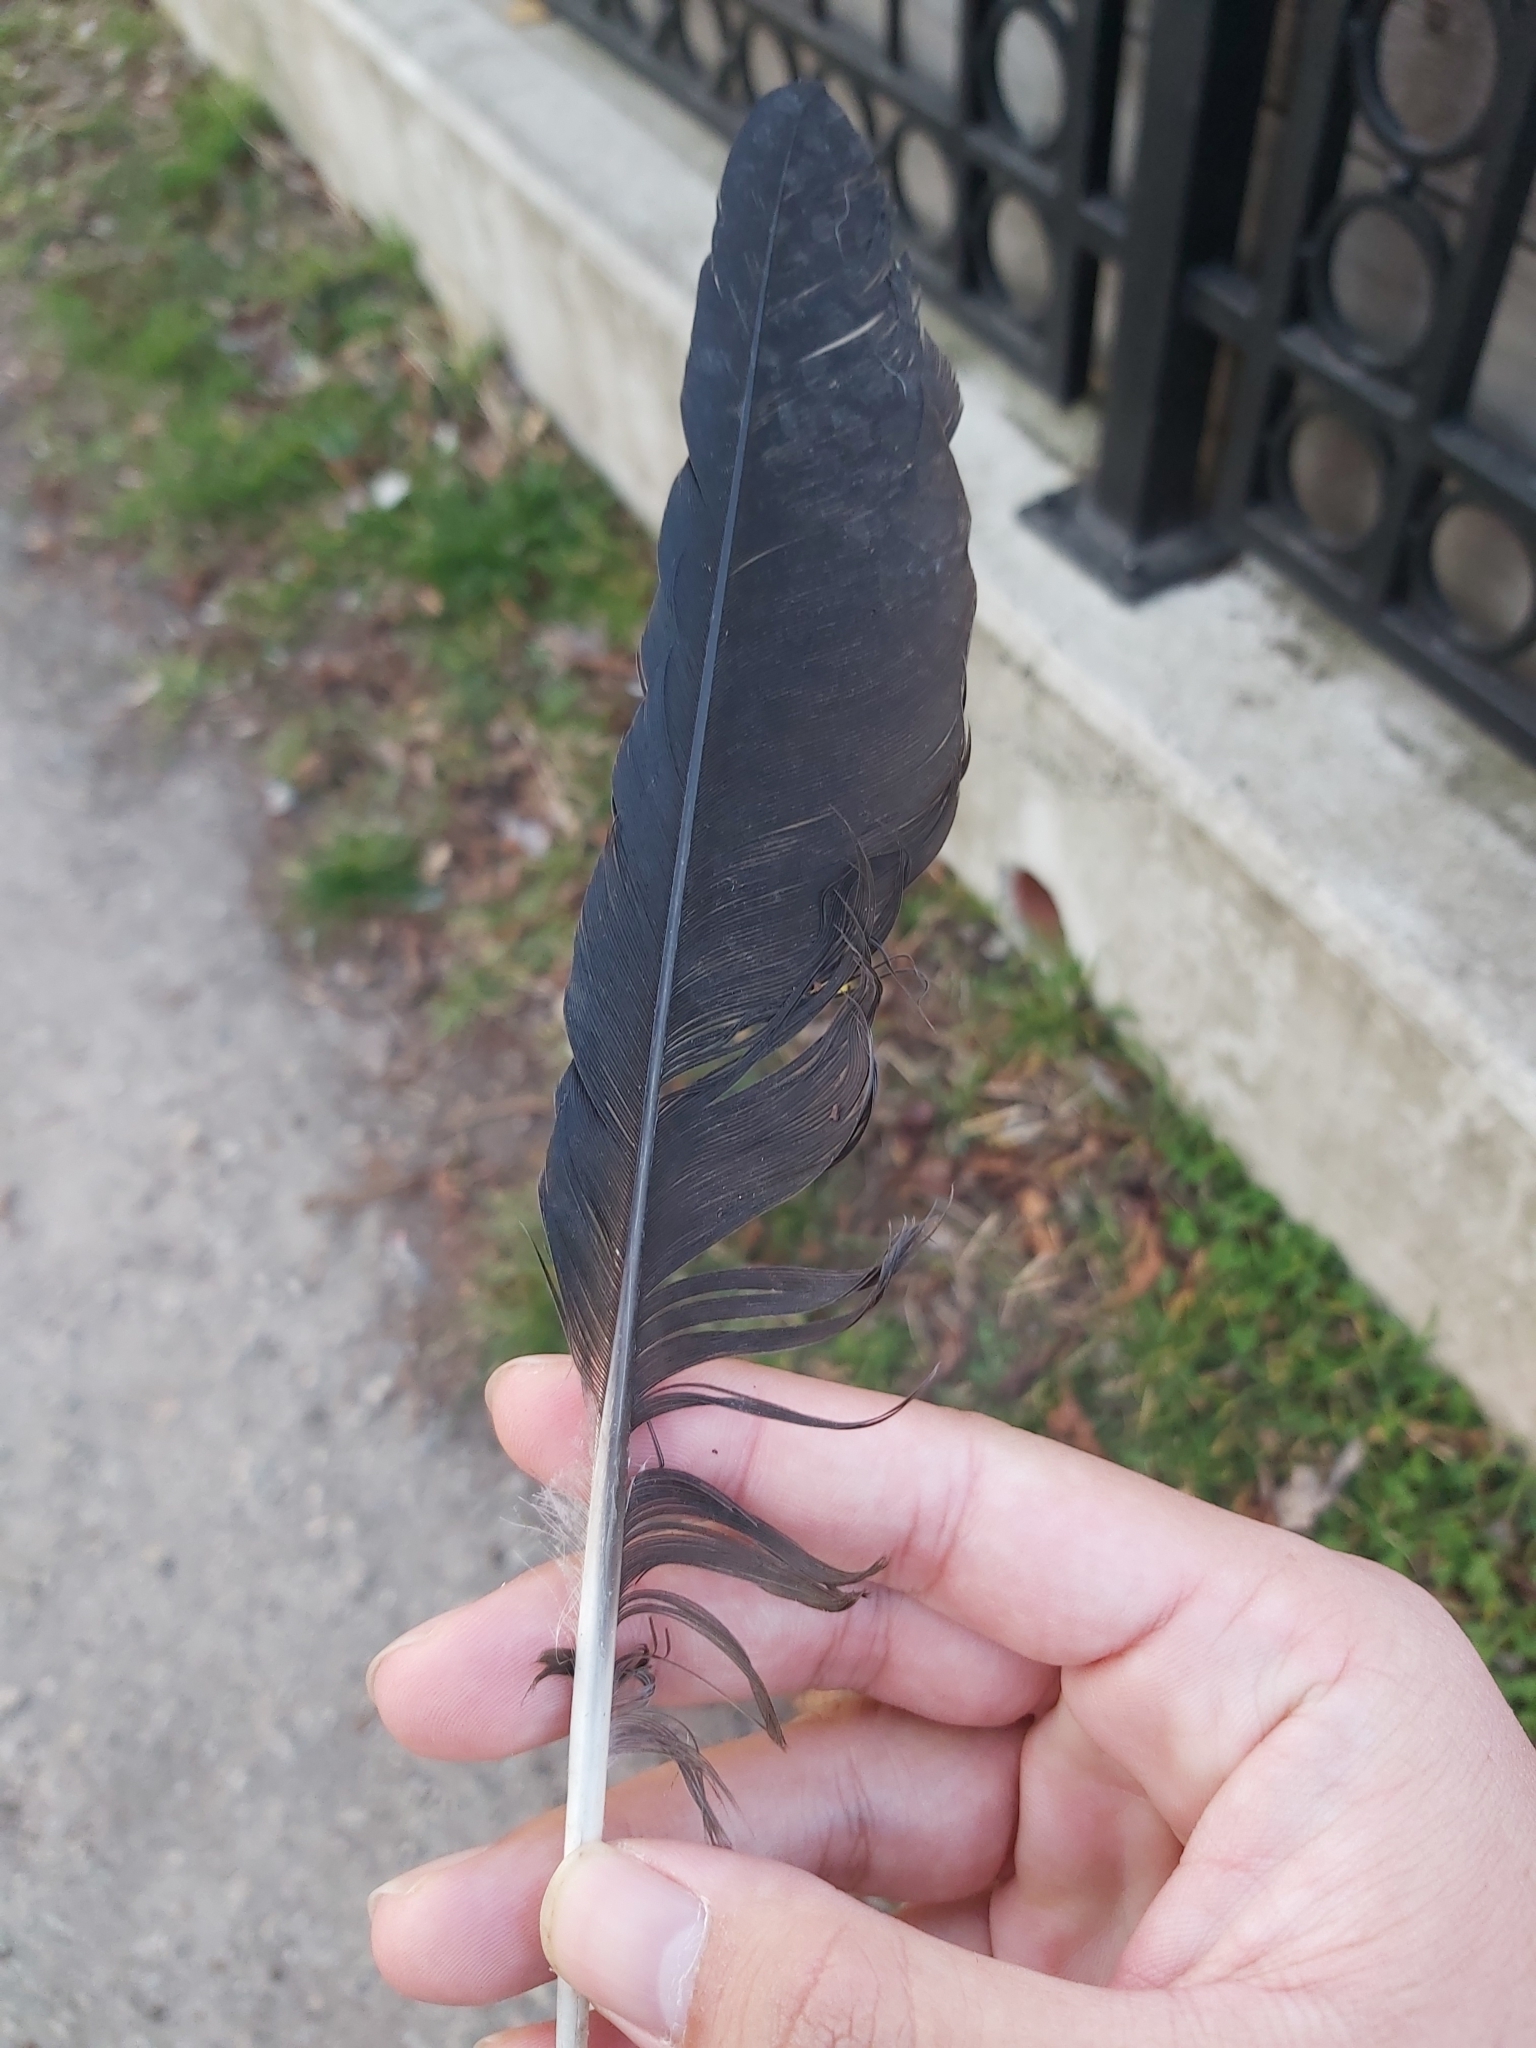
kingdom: Animalia
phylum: Chordata
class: Aves
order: Passeriformes
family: Corvidae
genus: Corvus
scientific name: Corvus cornix
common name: Hooded crow
